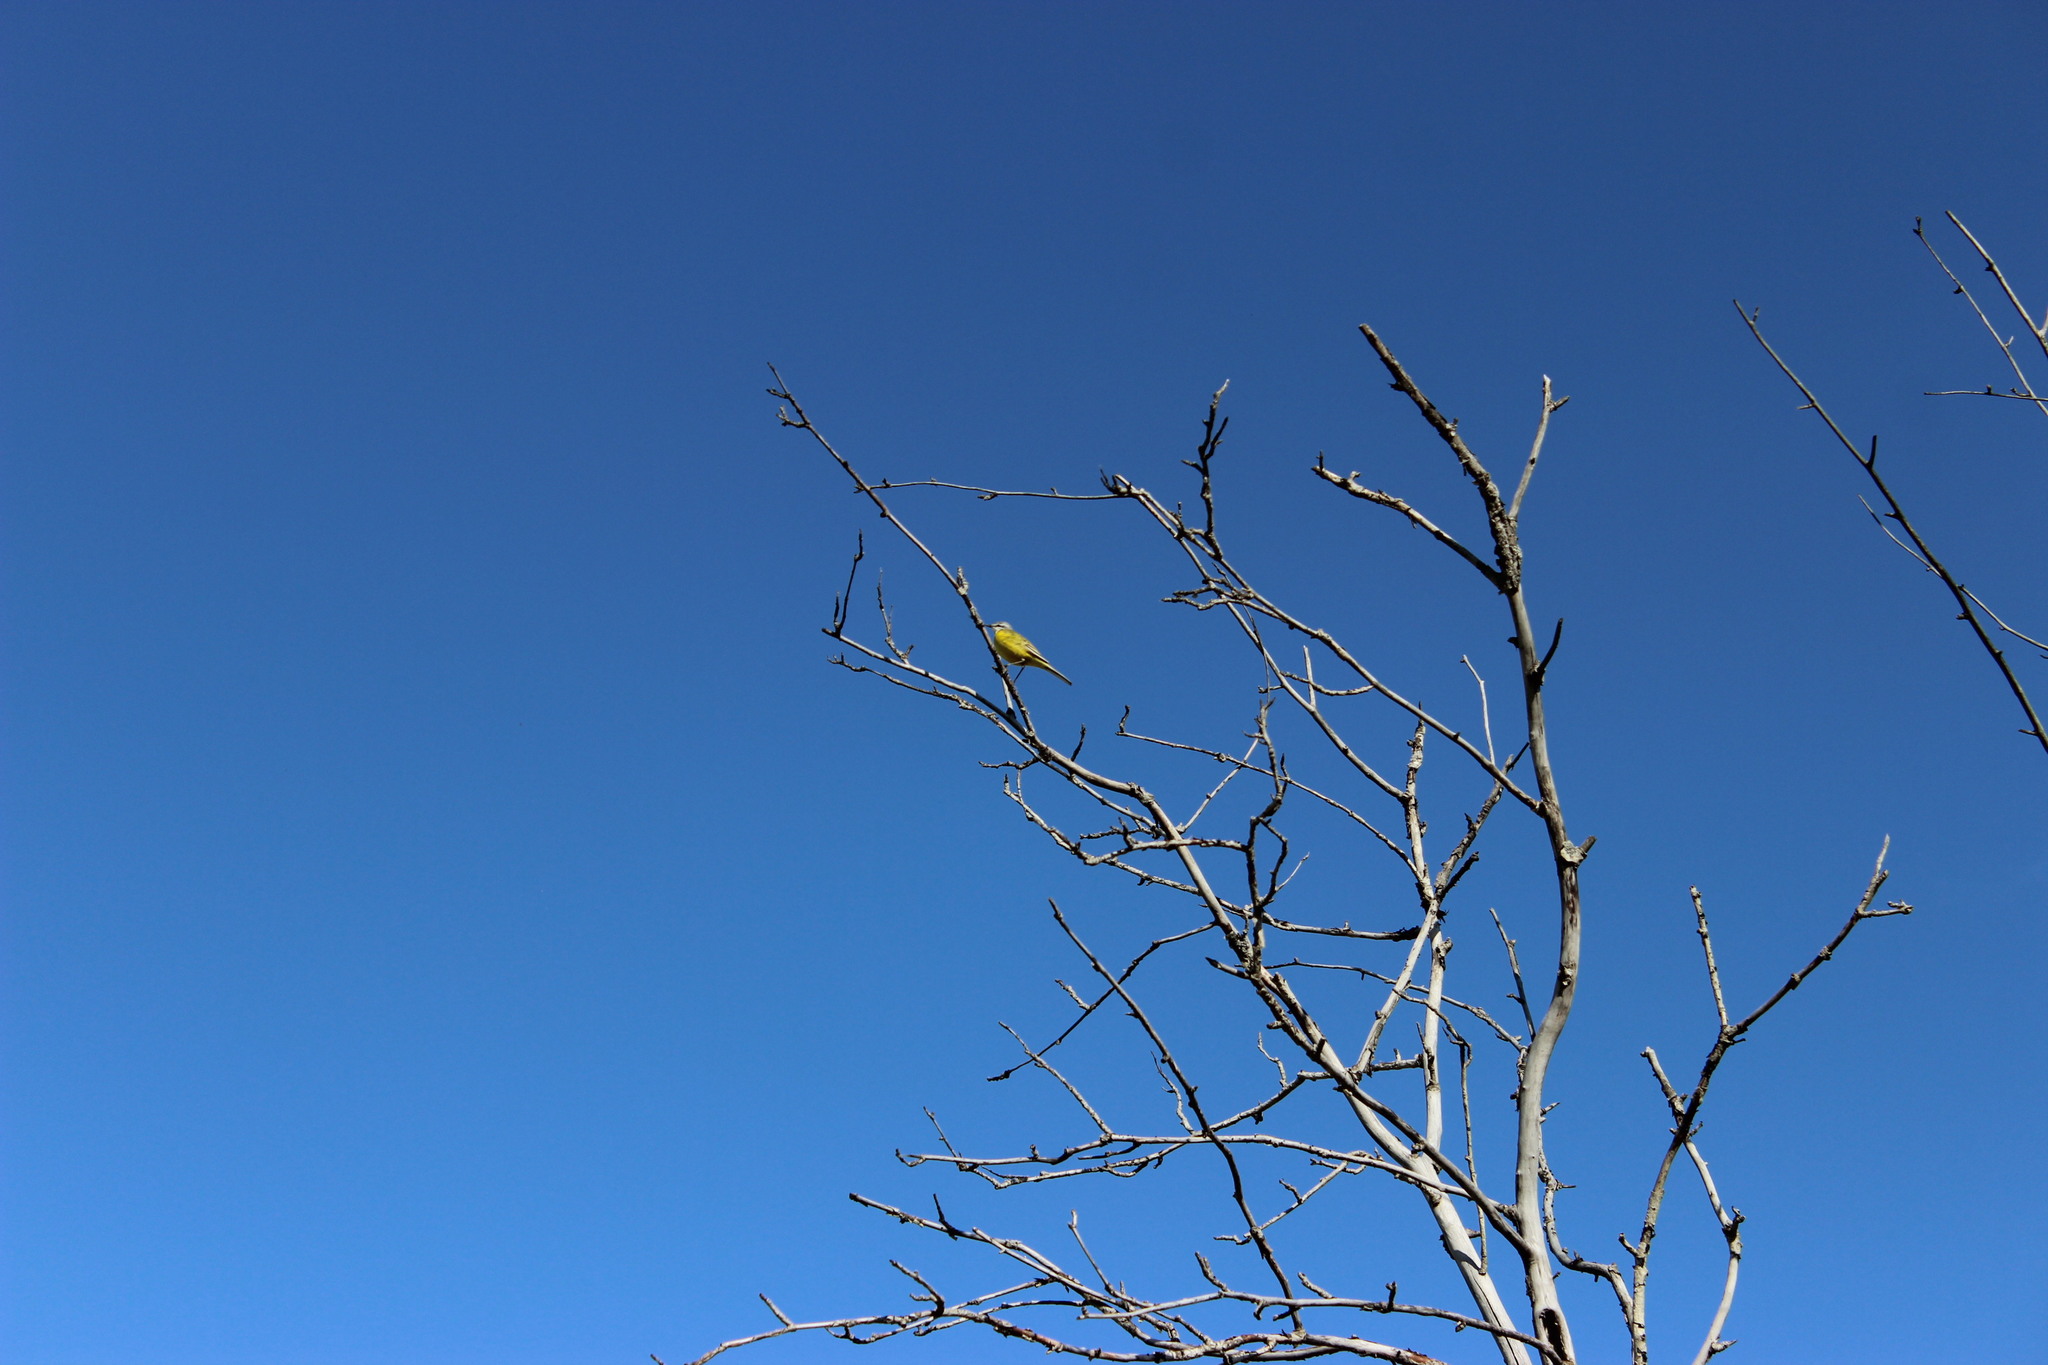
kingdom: Animalia
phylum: Chordata
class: Aves
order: Passeriformes
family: Motacillidae
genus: Motacilla
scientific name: Motacilla flava
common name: Western yellow wagtail
